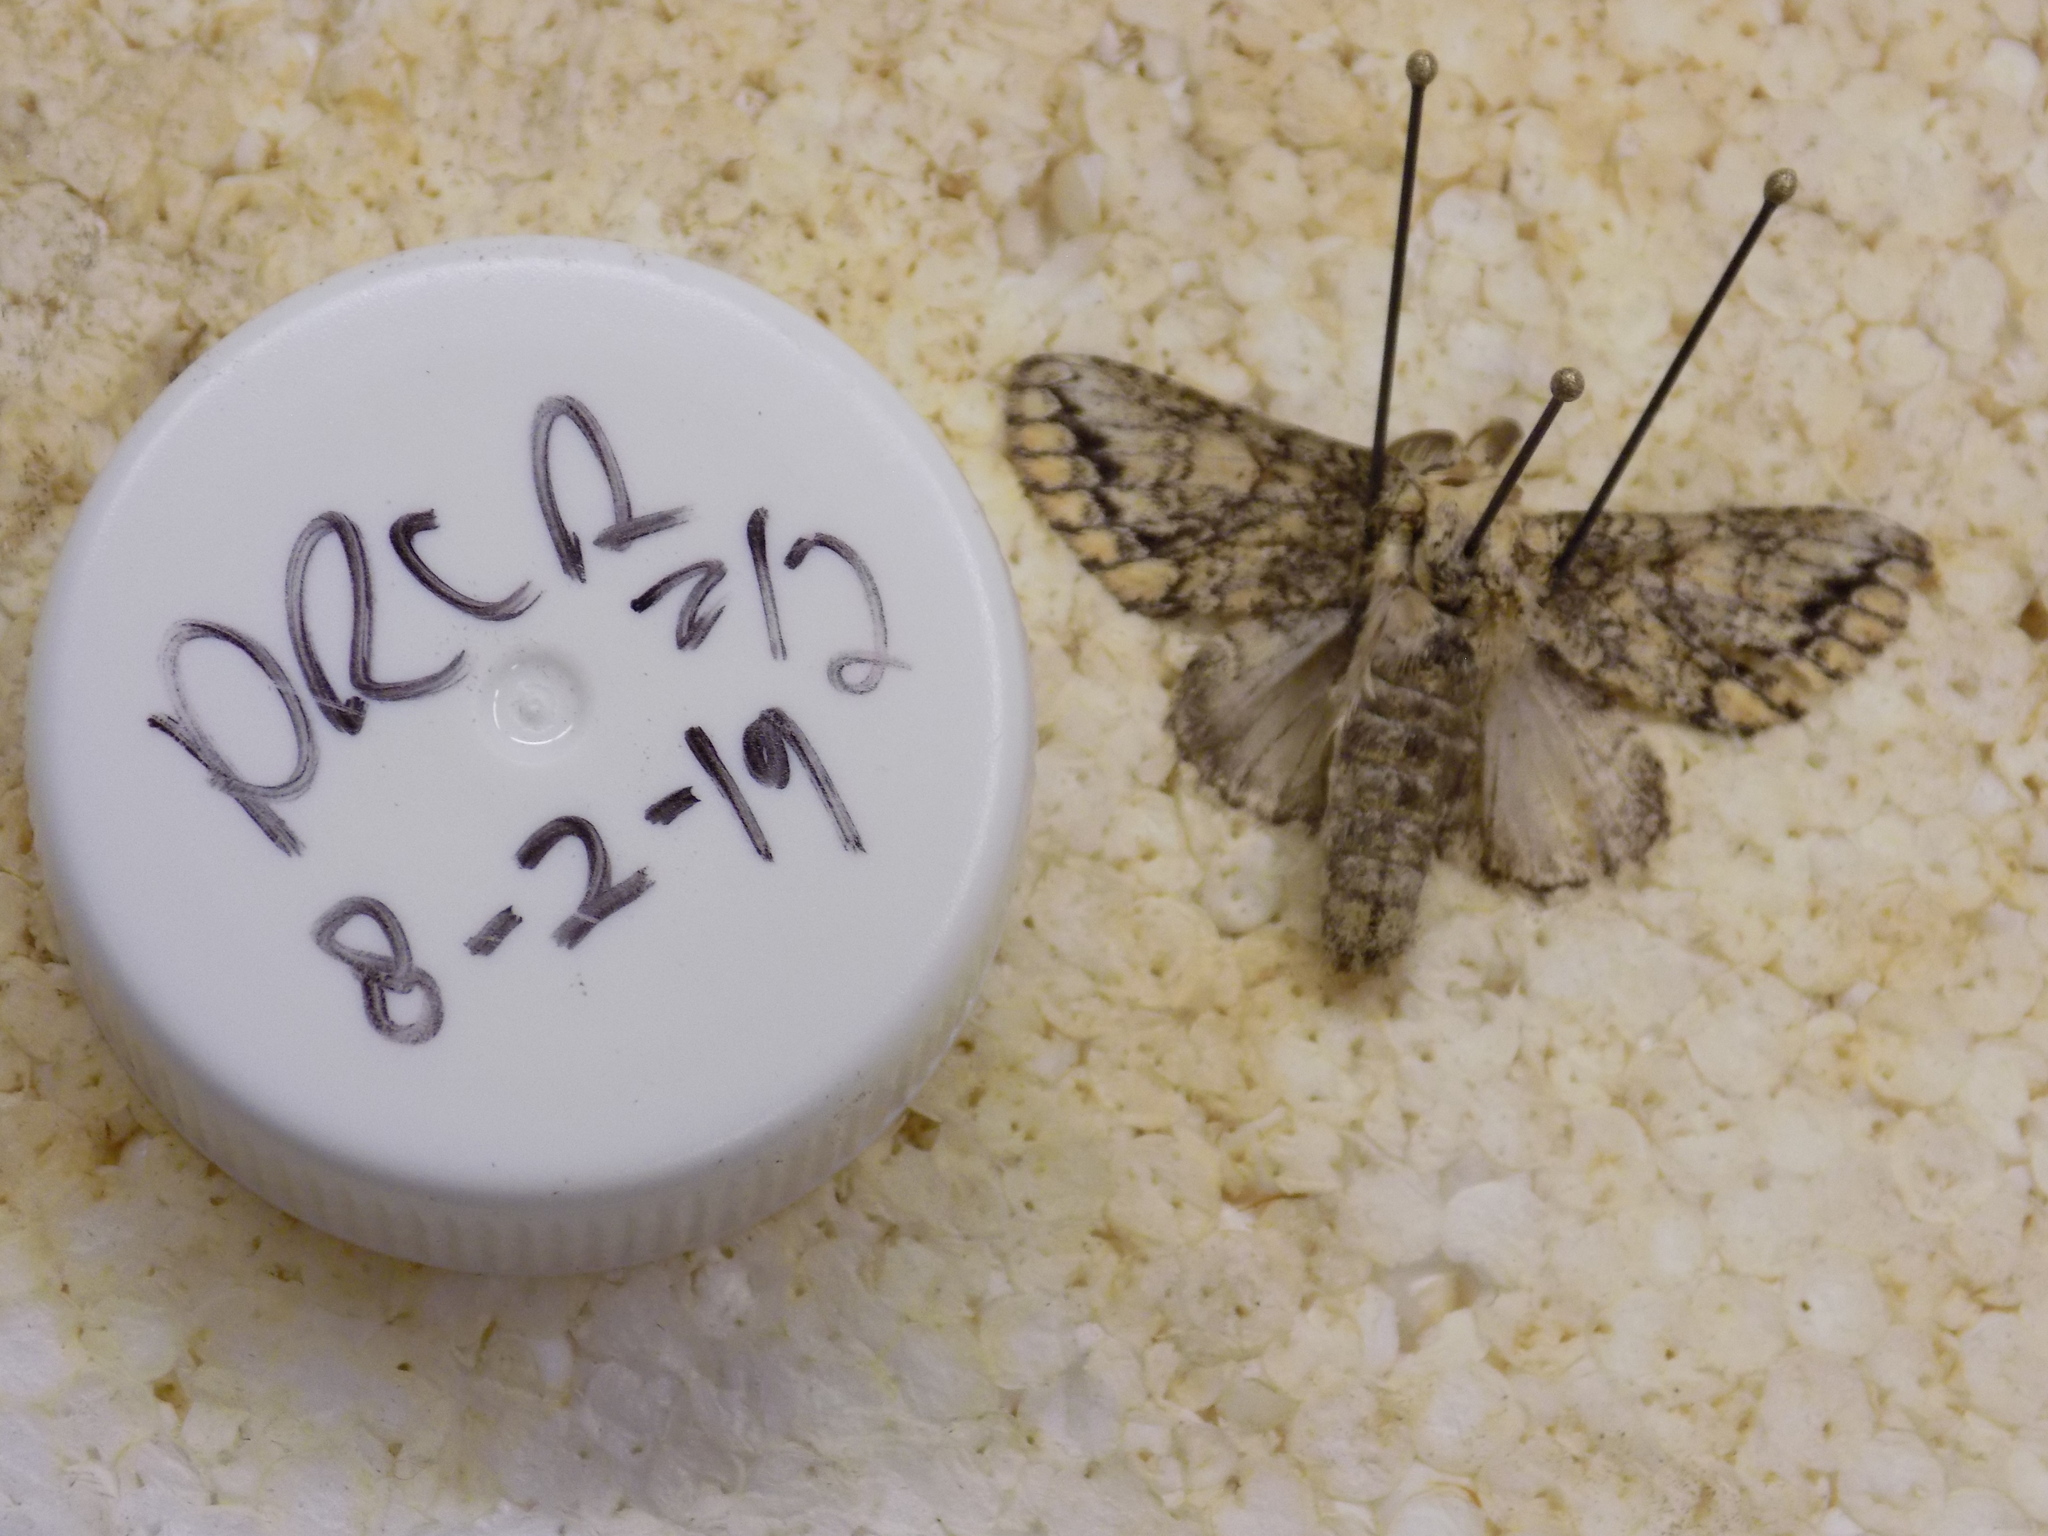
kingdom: Animalia
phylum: Arthropoda
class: Insecta
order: Lepidoptera
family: Notodontidae
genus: Heterocampa
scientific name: Heterocampa umbrata
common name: White-blotched heterocampa
